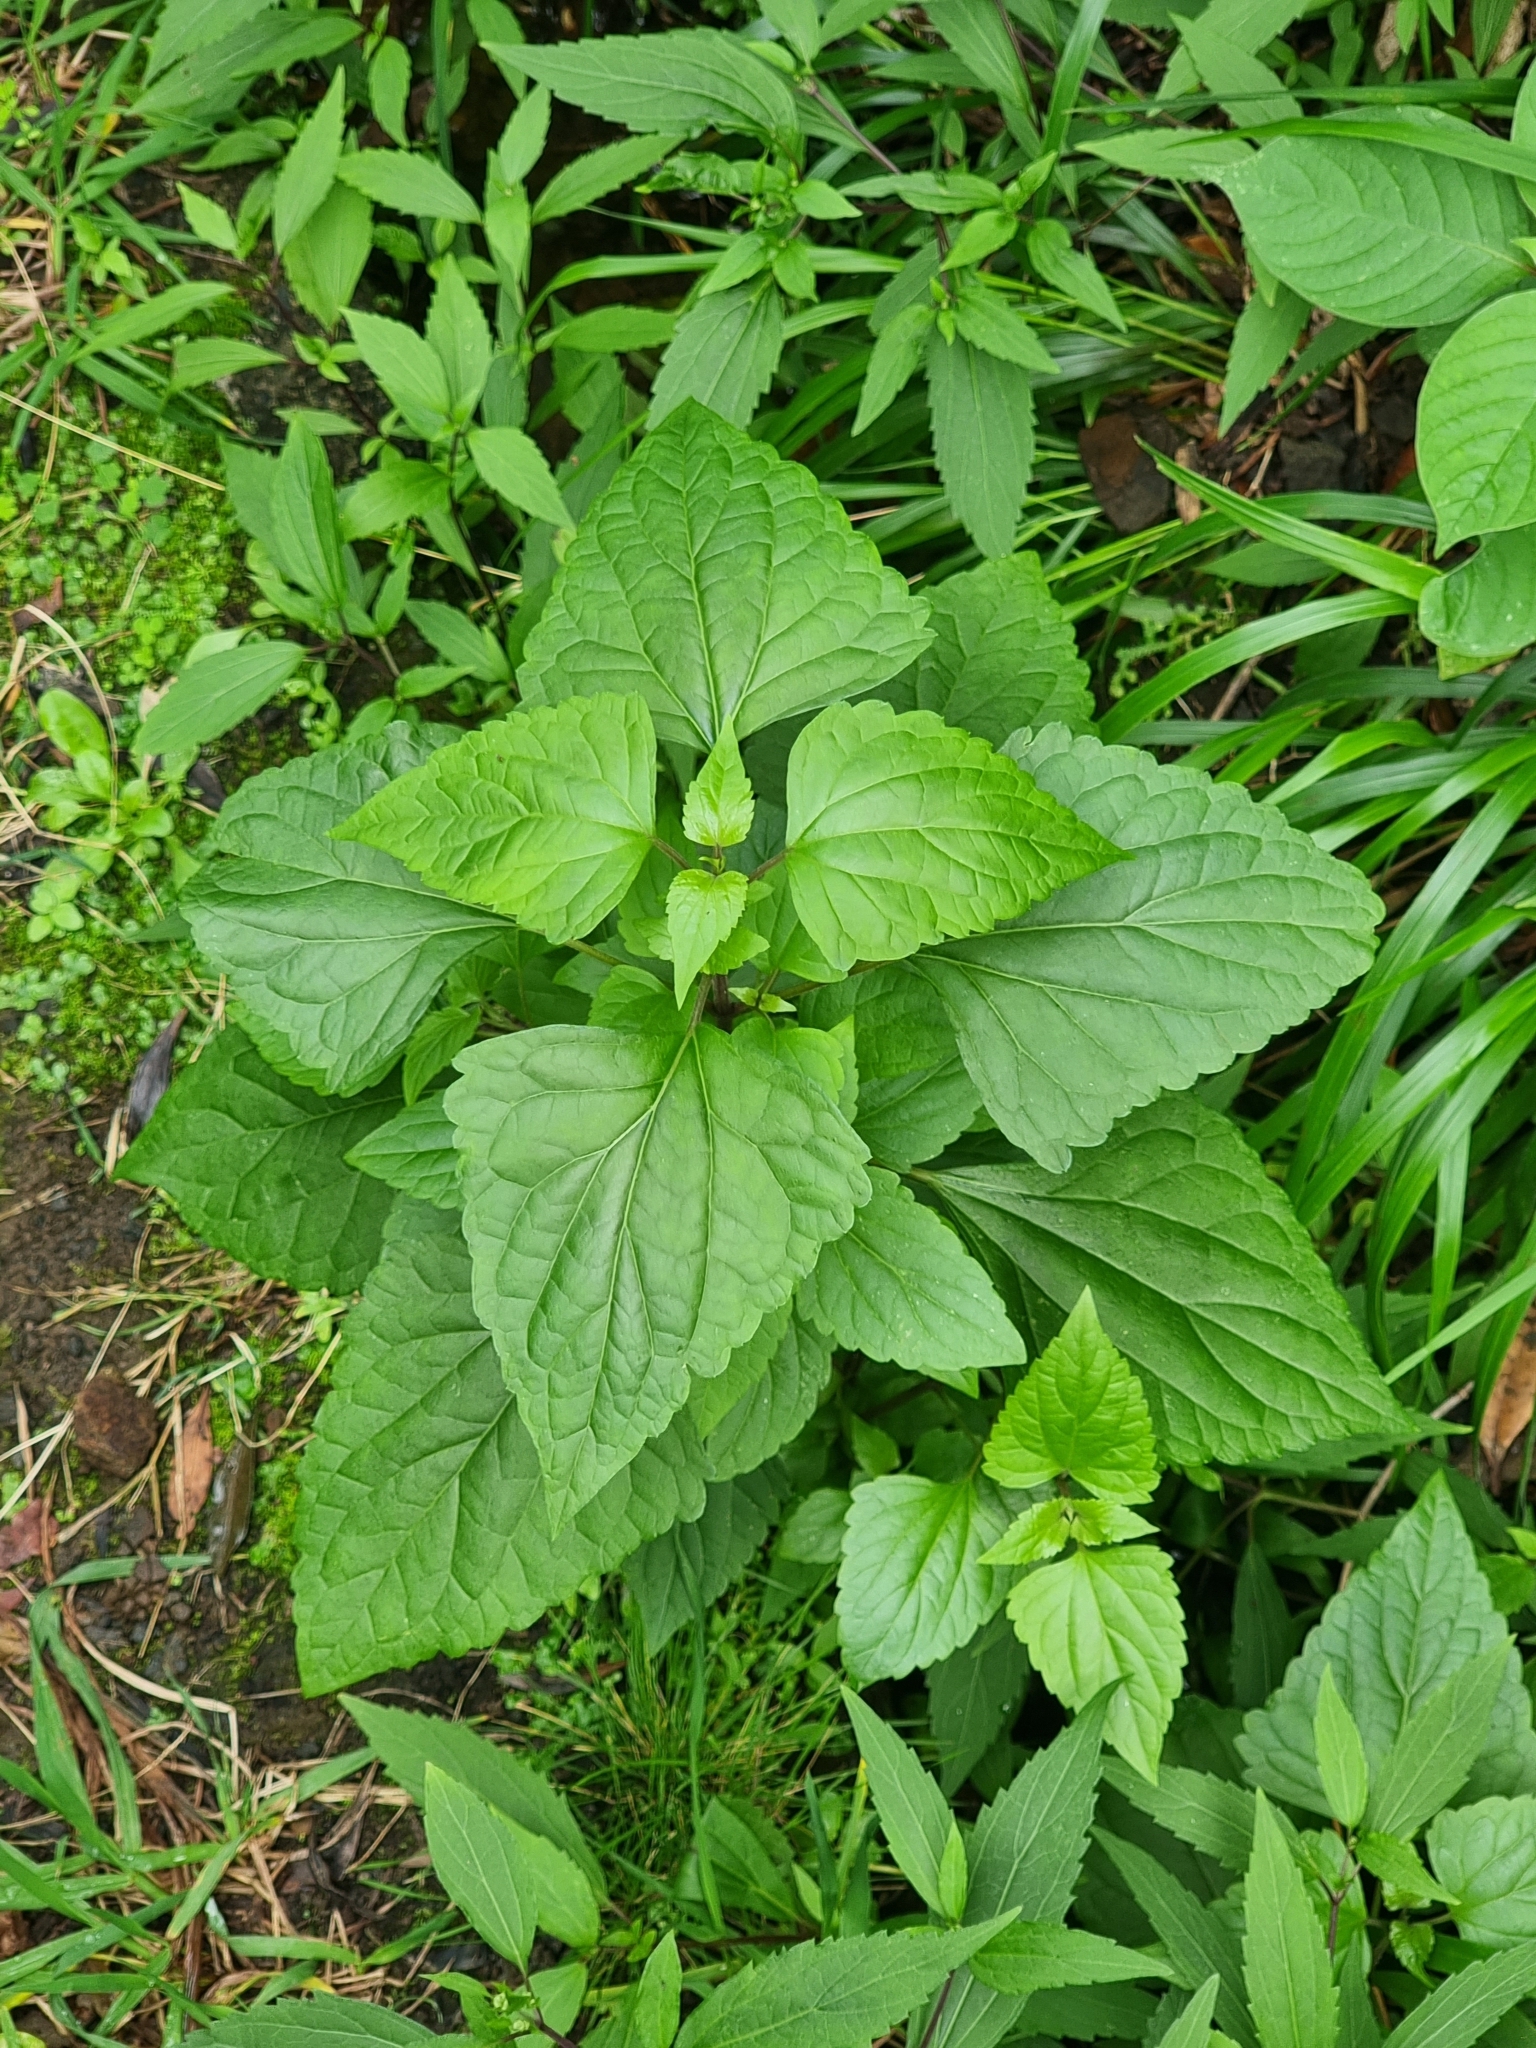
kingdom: Plantae
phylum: Tracheophyta
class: Magnoliopsida
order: Asterales
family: Asteraceae
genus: Ageratina
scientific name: Ageratina adenophora
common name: Sticky snakeroot
